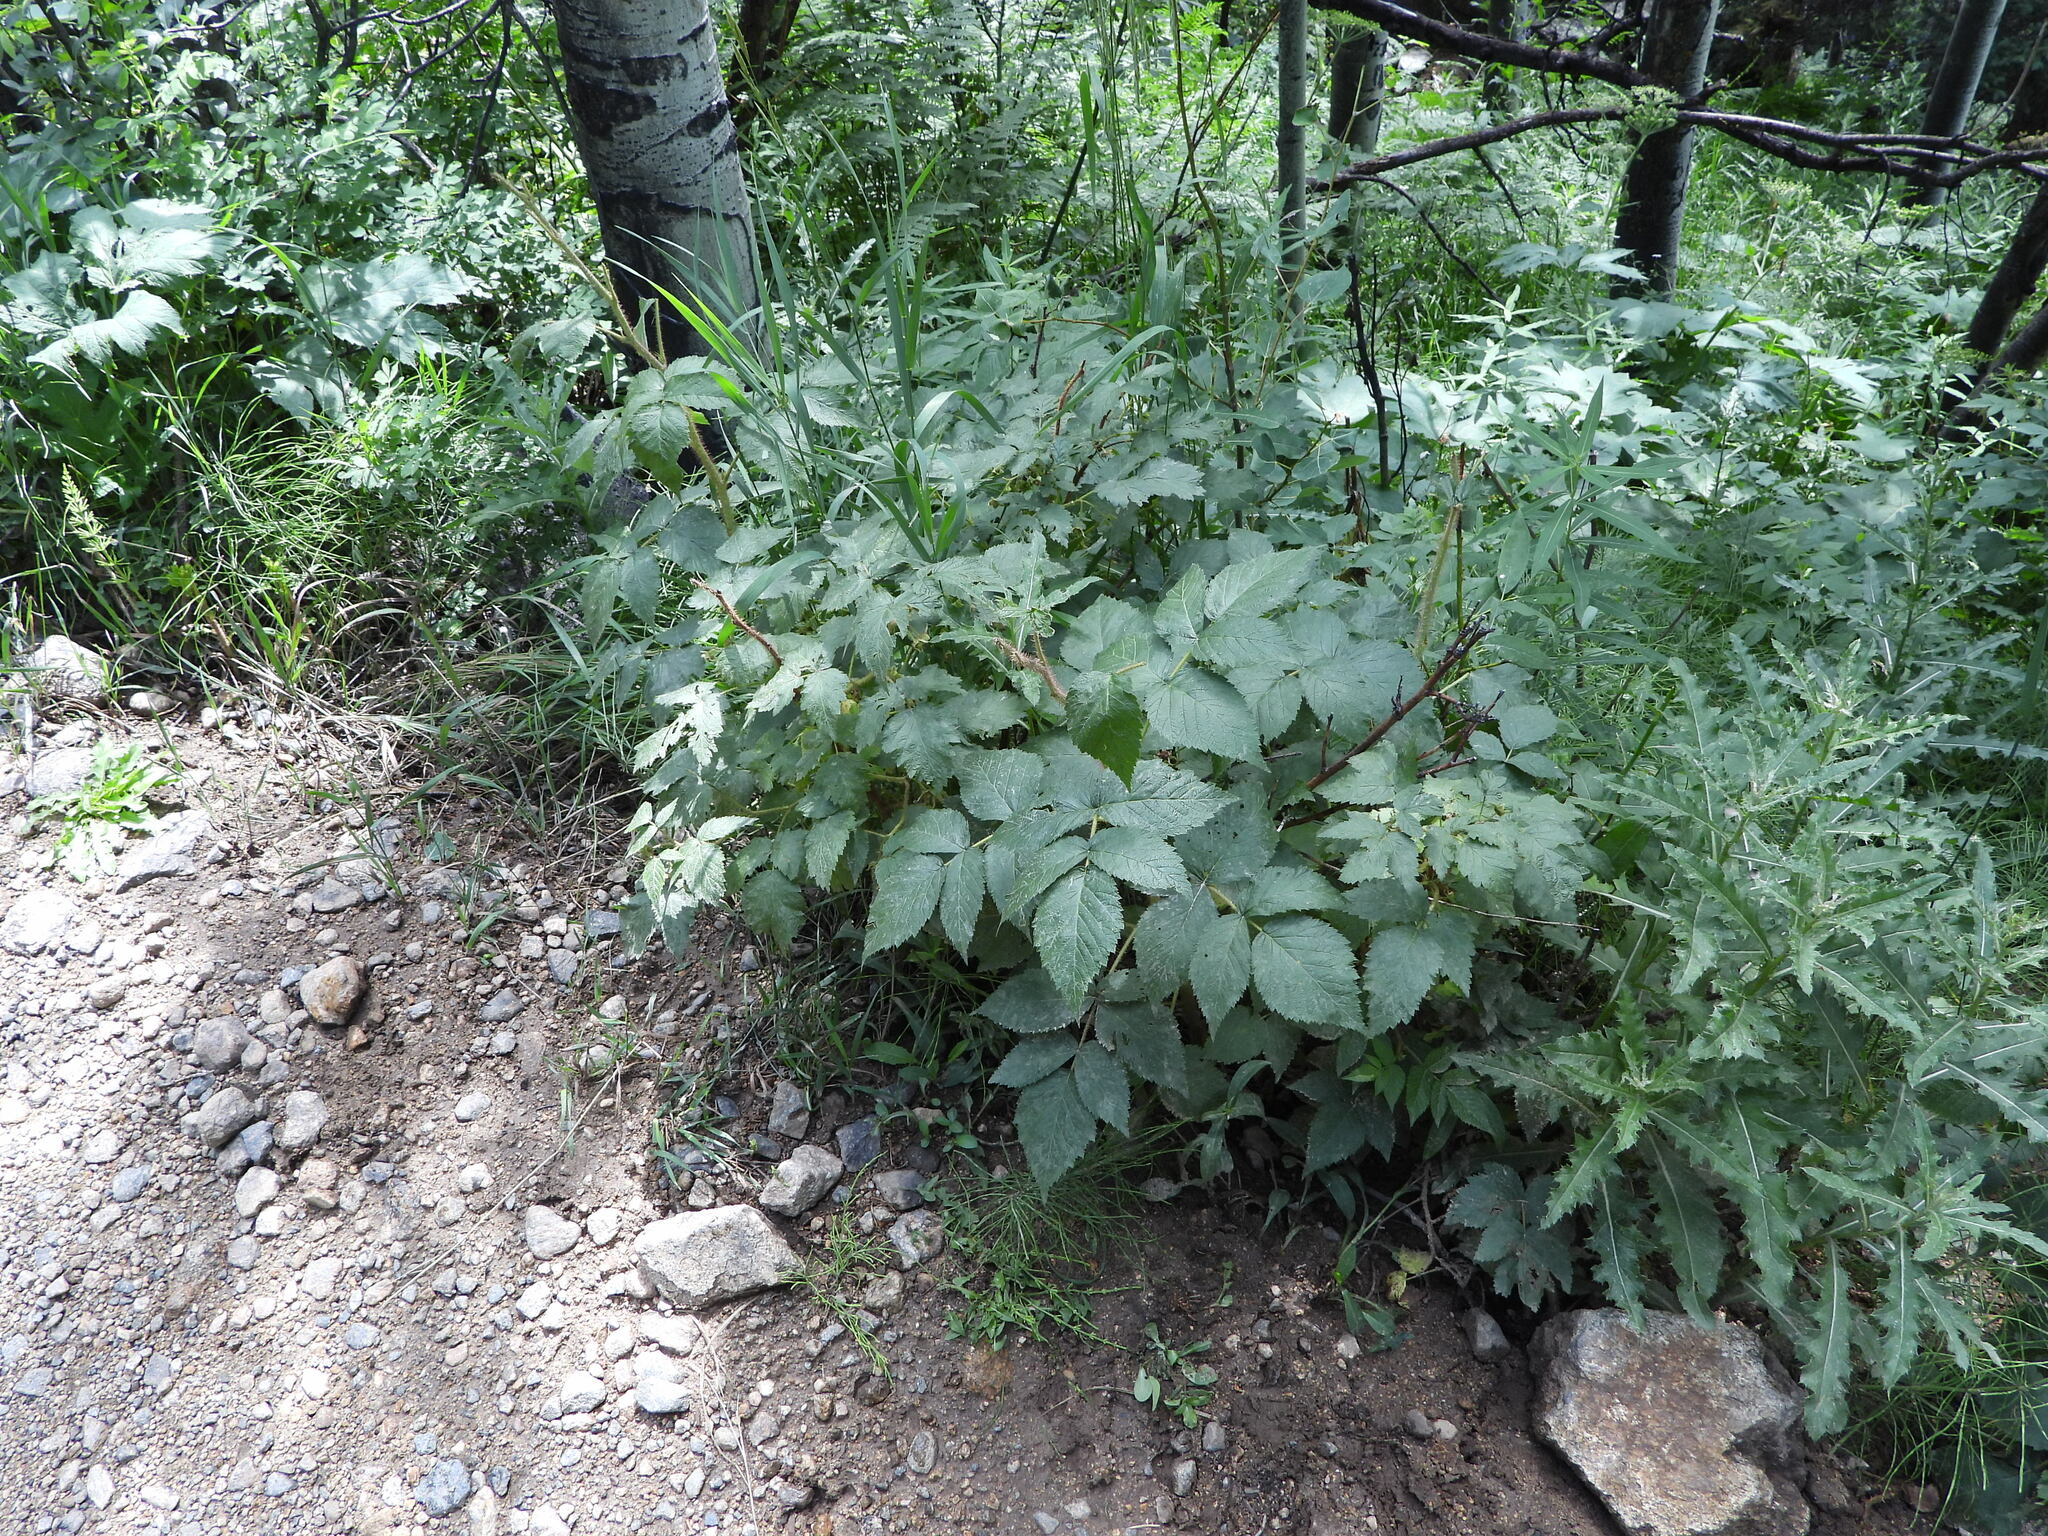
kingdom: Plantae
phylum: Tracheophyta
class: Magnoliopsida
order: Rosales
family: Rosaceae
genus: Rubus
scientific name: Rubus idaeus
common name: Raspberry
